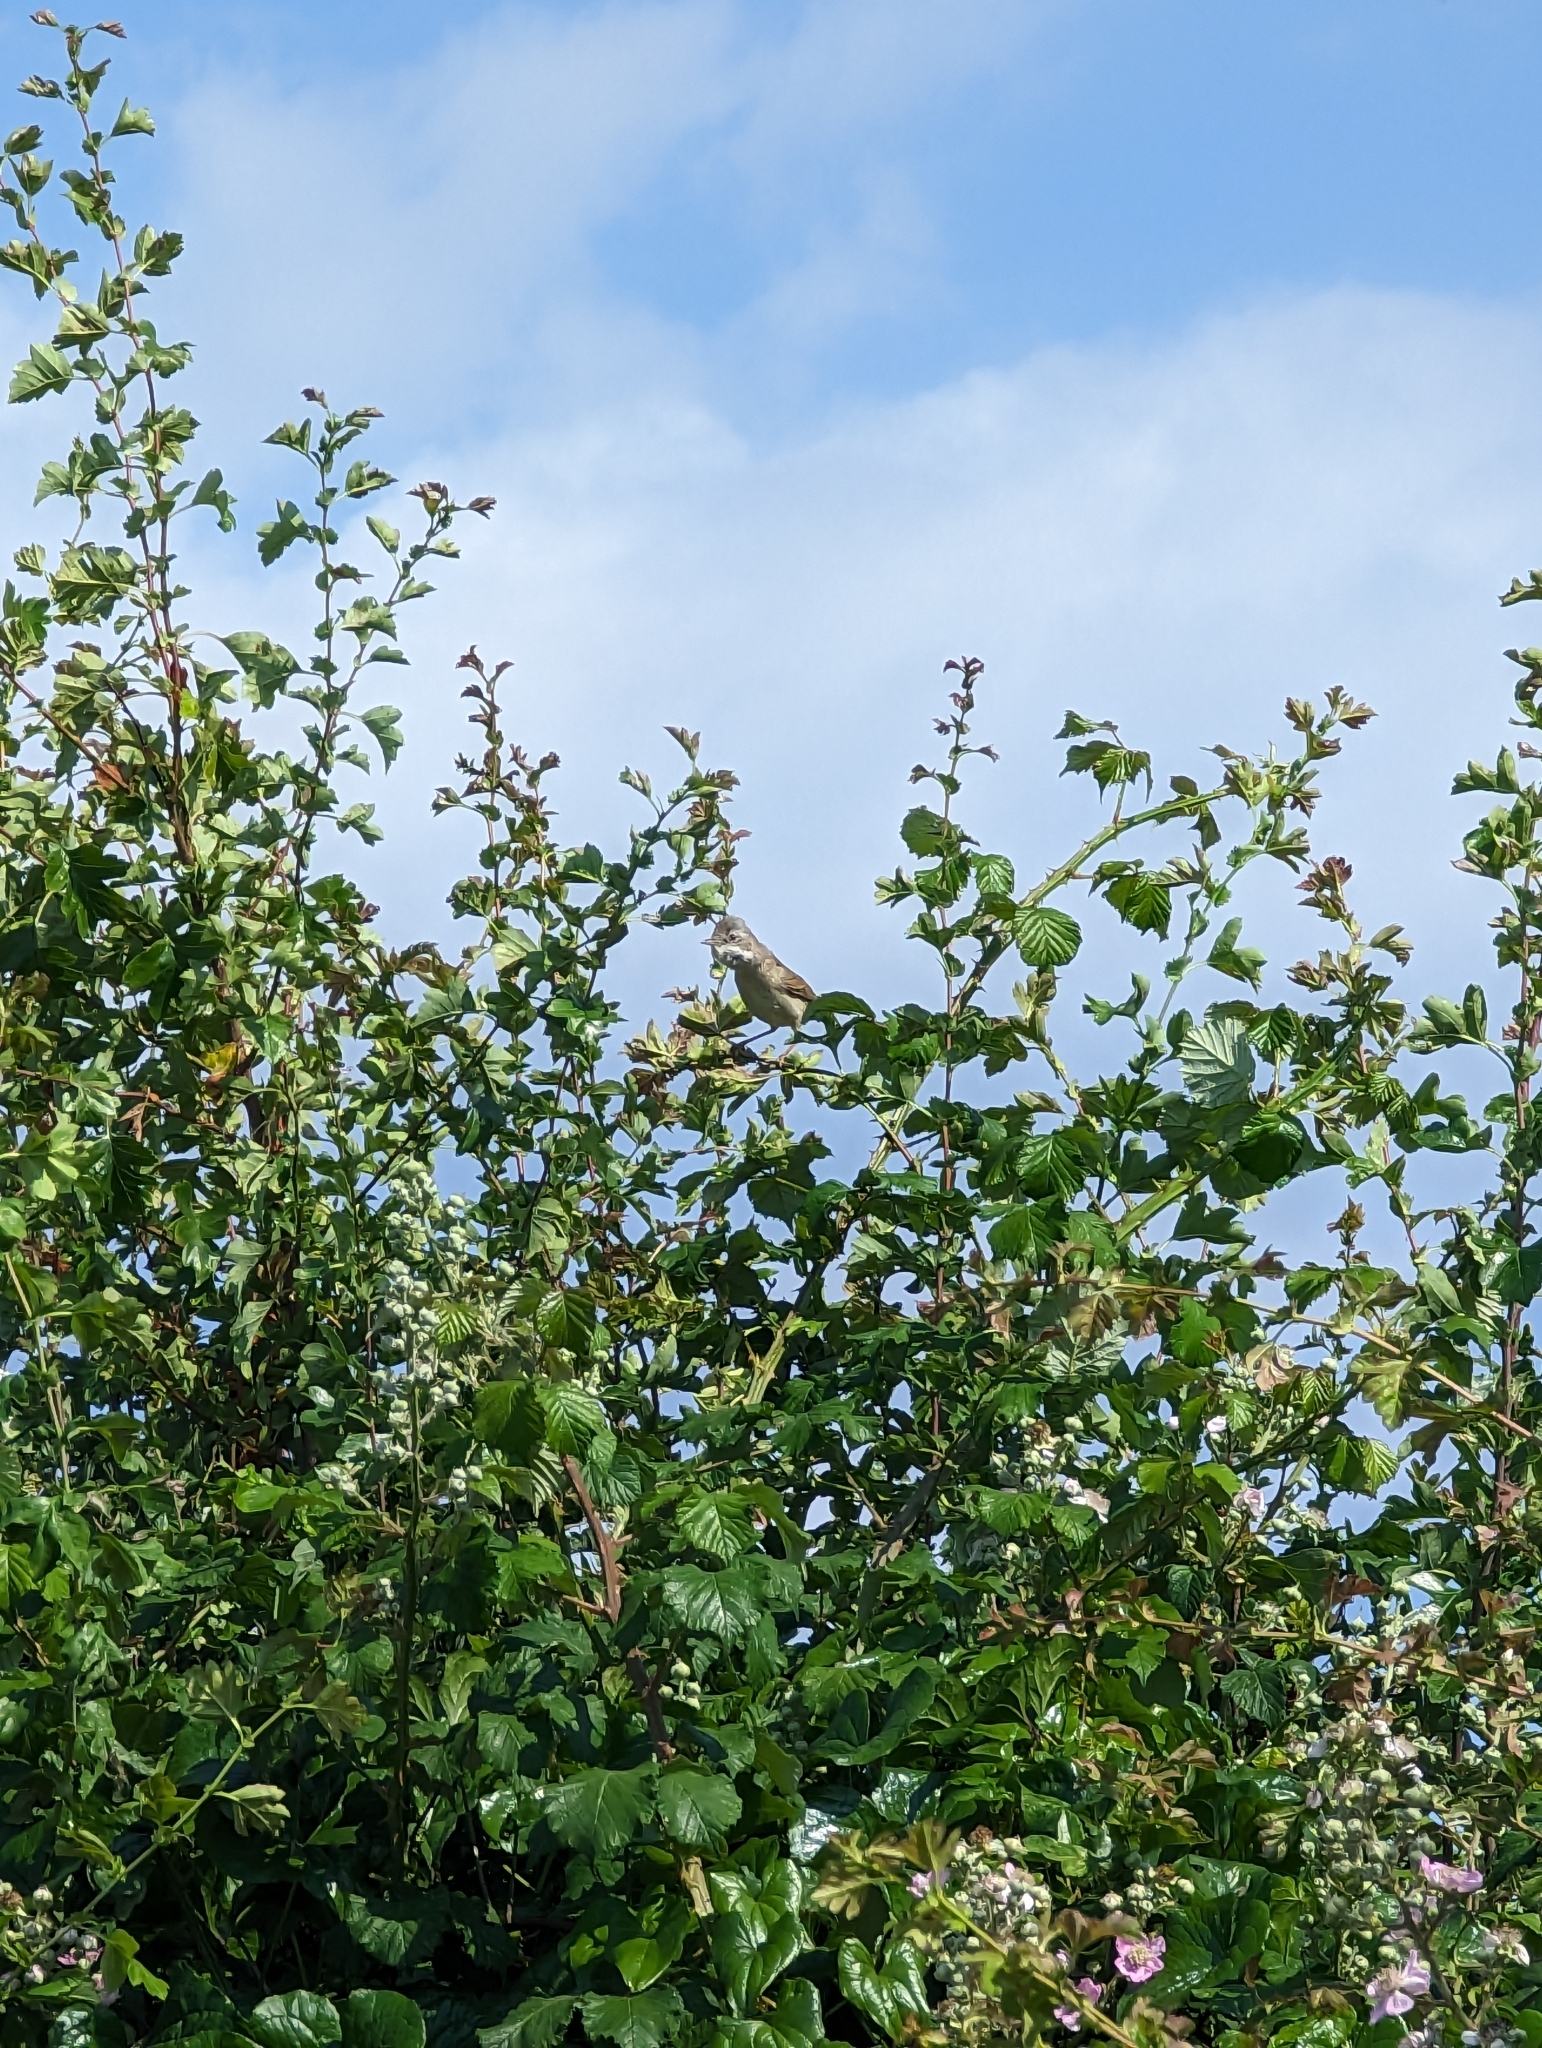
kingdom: Animalia
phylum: Chordata
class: Aves
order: Passeriformes
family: Sylviidae
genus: Sylvia
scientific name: Sylvia communis
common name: Common whitethroat
